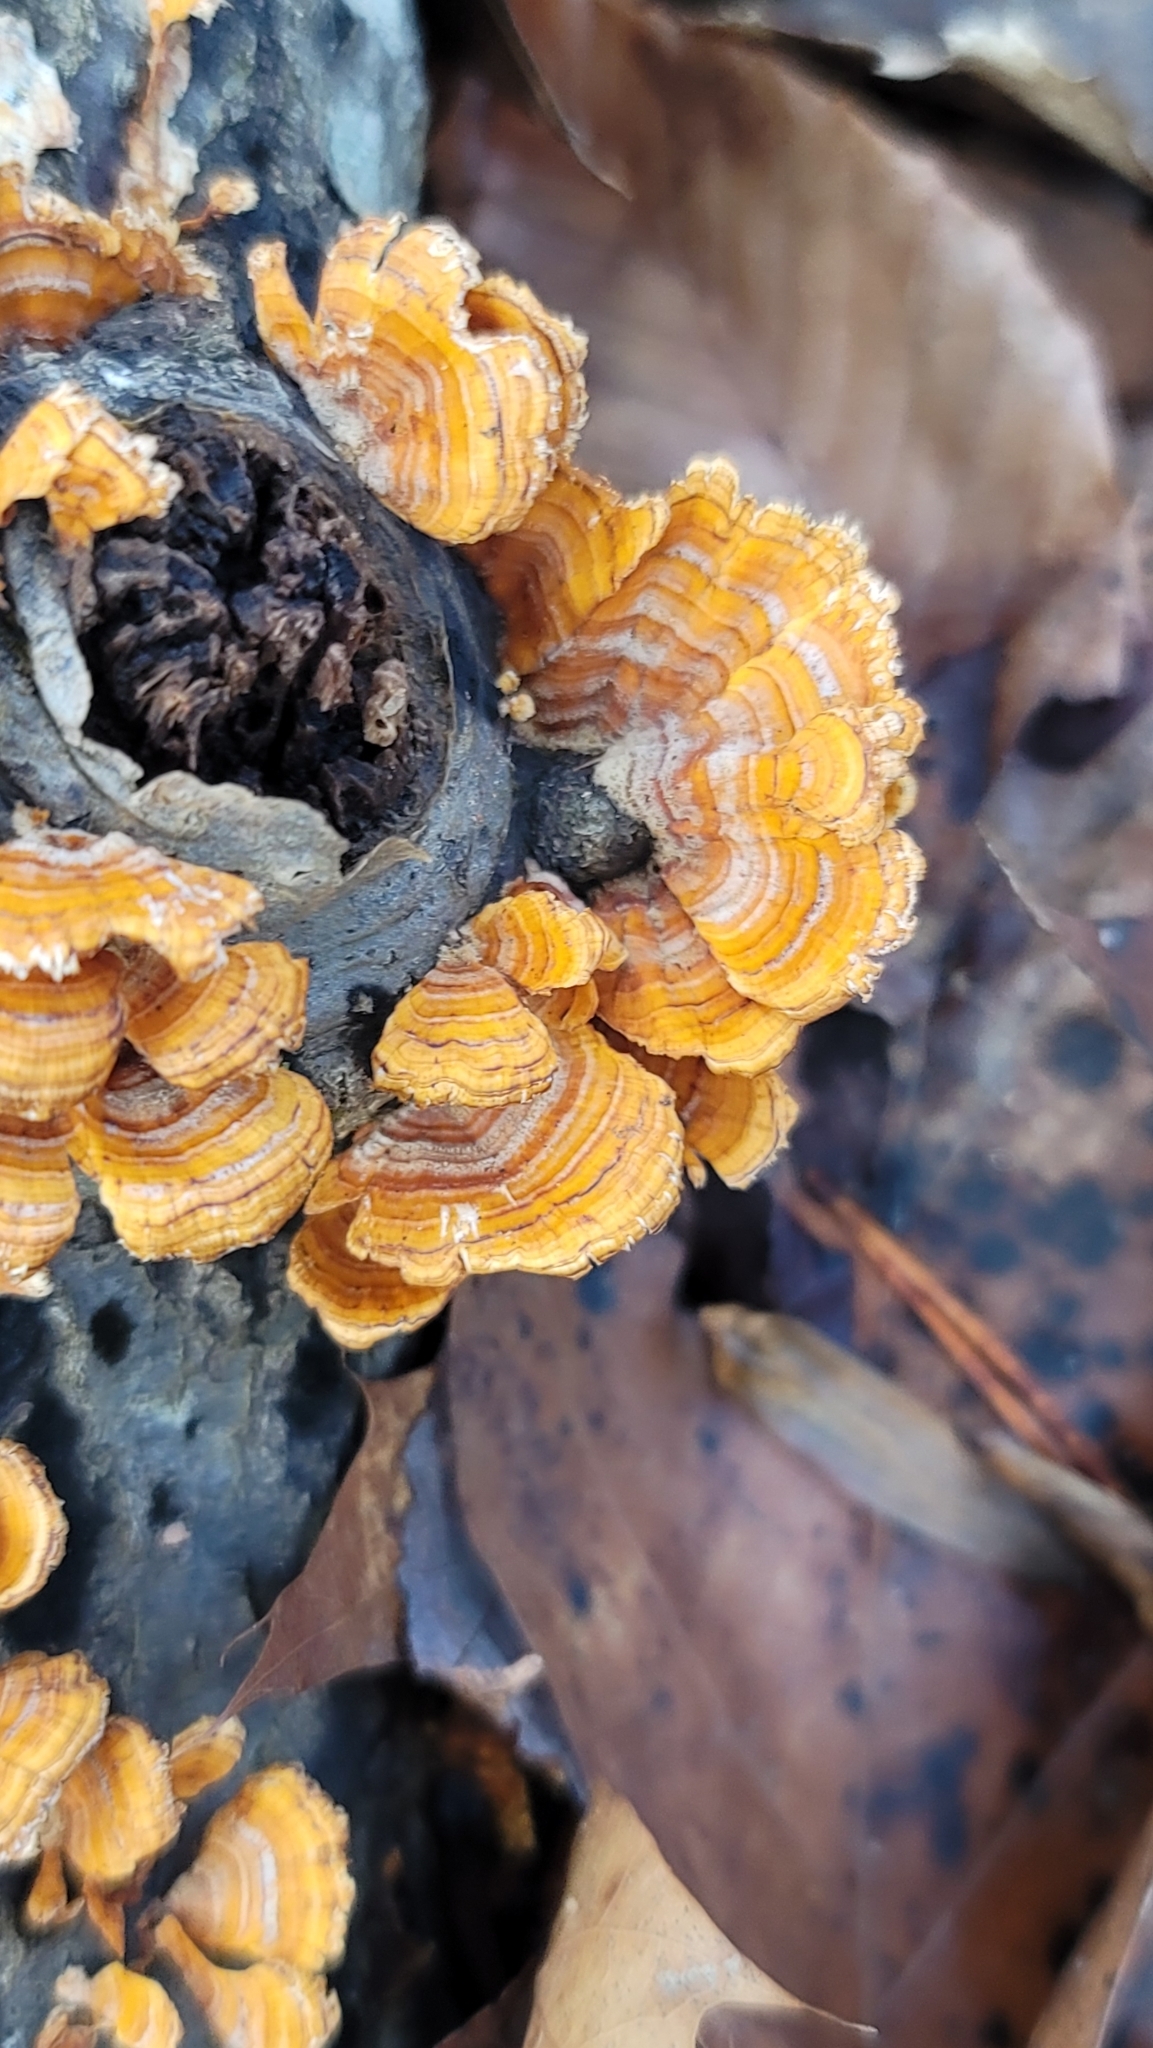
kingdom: Fungi
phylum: Basidiomycota
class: Agaricomycetes
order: Russulales
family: Stereaceae
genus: Stereum
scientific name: Stereum complicatum
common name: Crowded parchment
